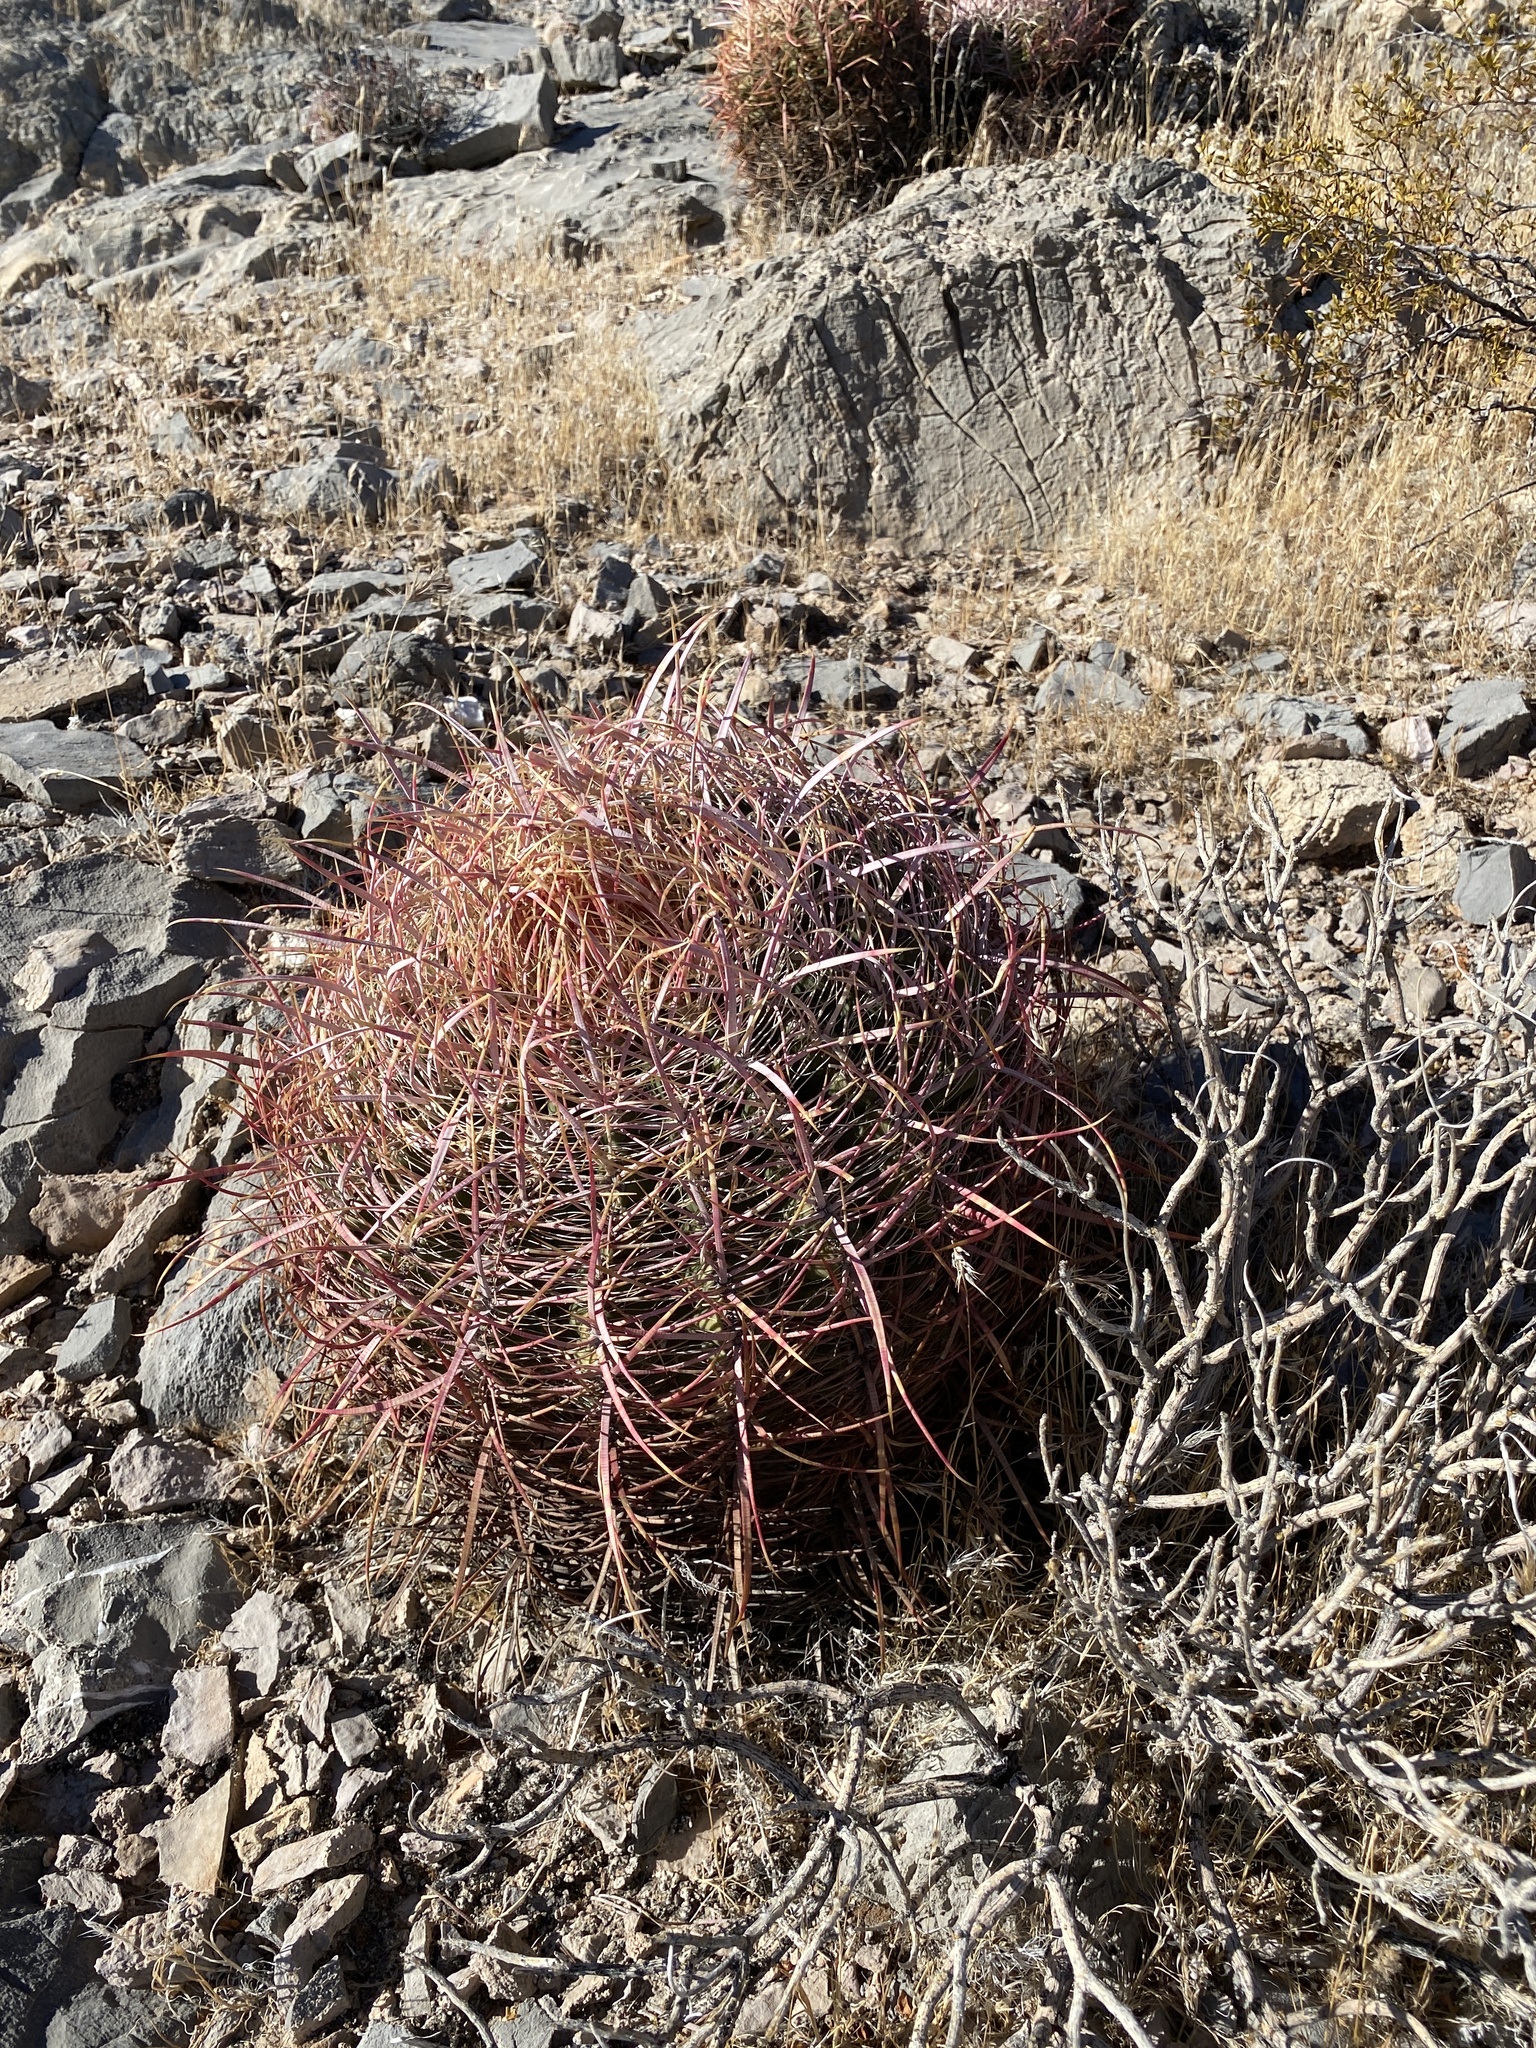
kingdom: Plantae
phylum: Tracheophyta
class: Magnoliopsida
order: Caryophyllales
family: Cactaceae
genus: Ferocactus
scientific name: Ferocactus cylindraceus
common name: California barrel cactus
